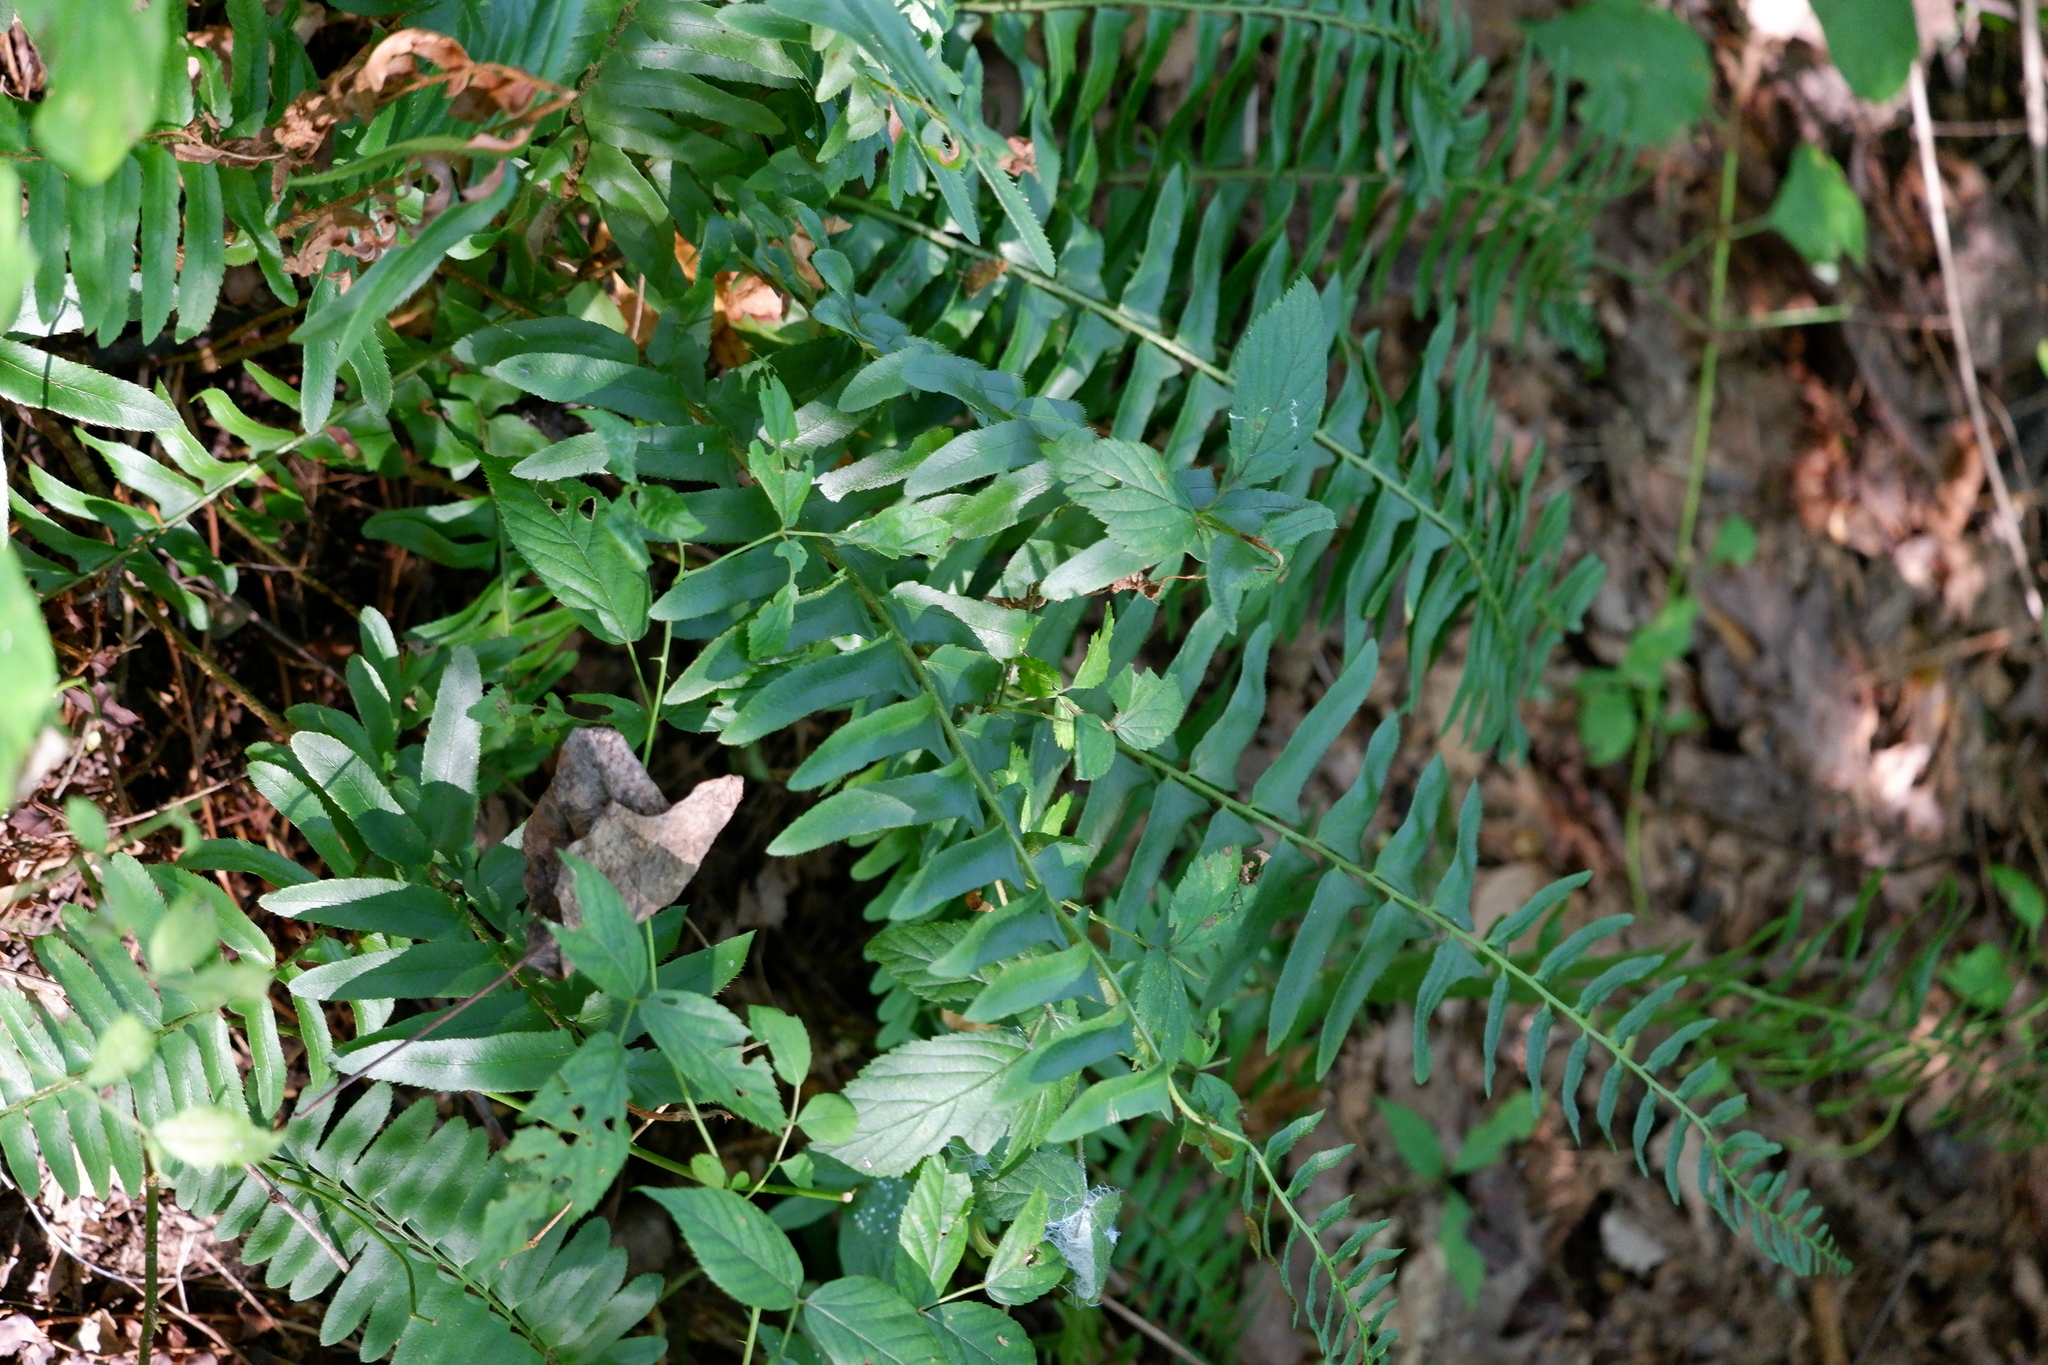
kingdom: Plantae
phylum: Tracheophyta
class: Polypodiopsida
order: Polypodiales
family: Dryopteridaceae
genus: Polystichum
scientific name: Polystichum acrostichoides
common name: Christmas fern
